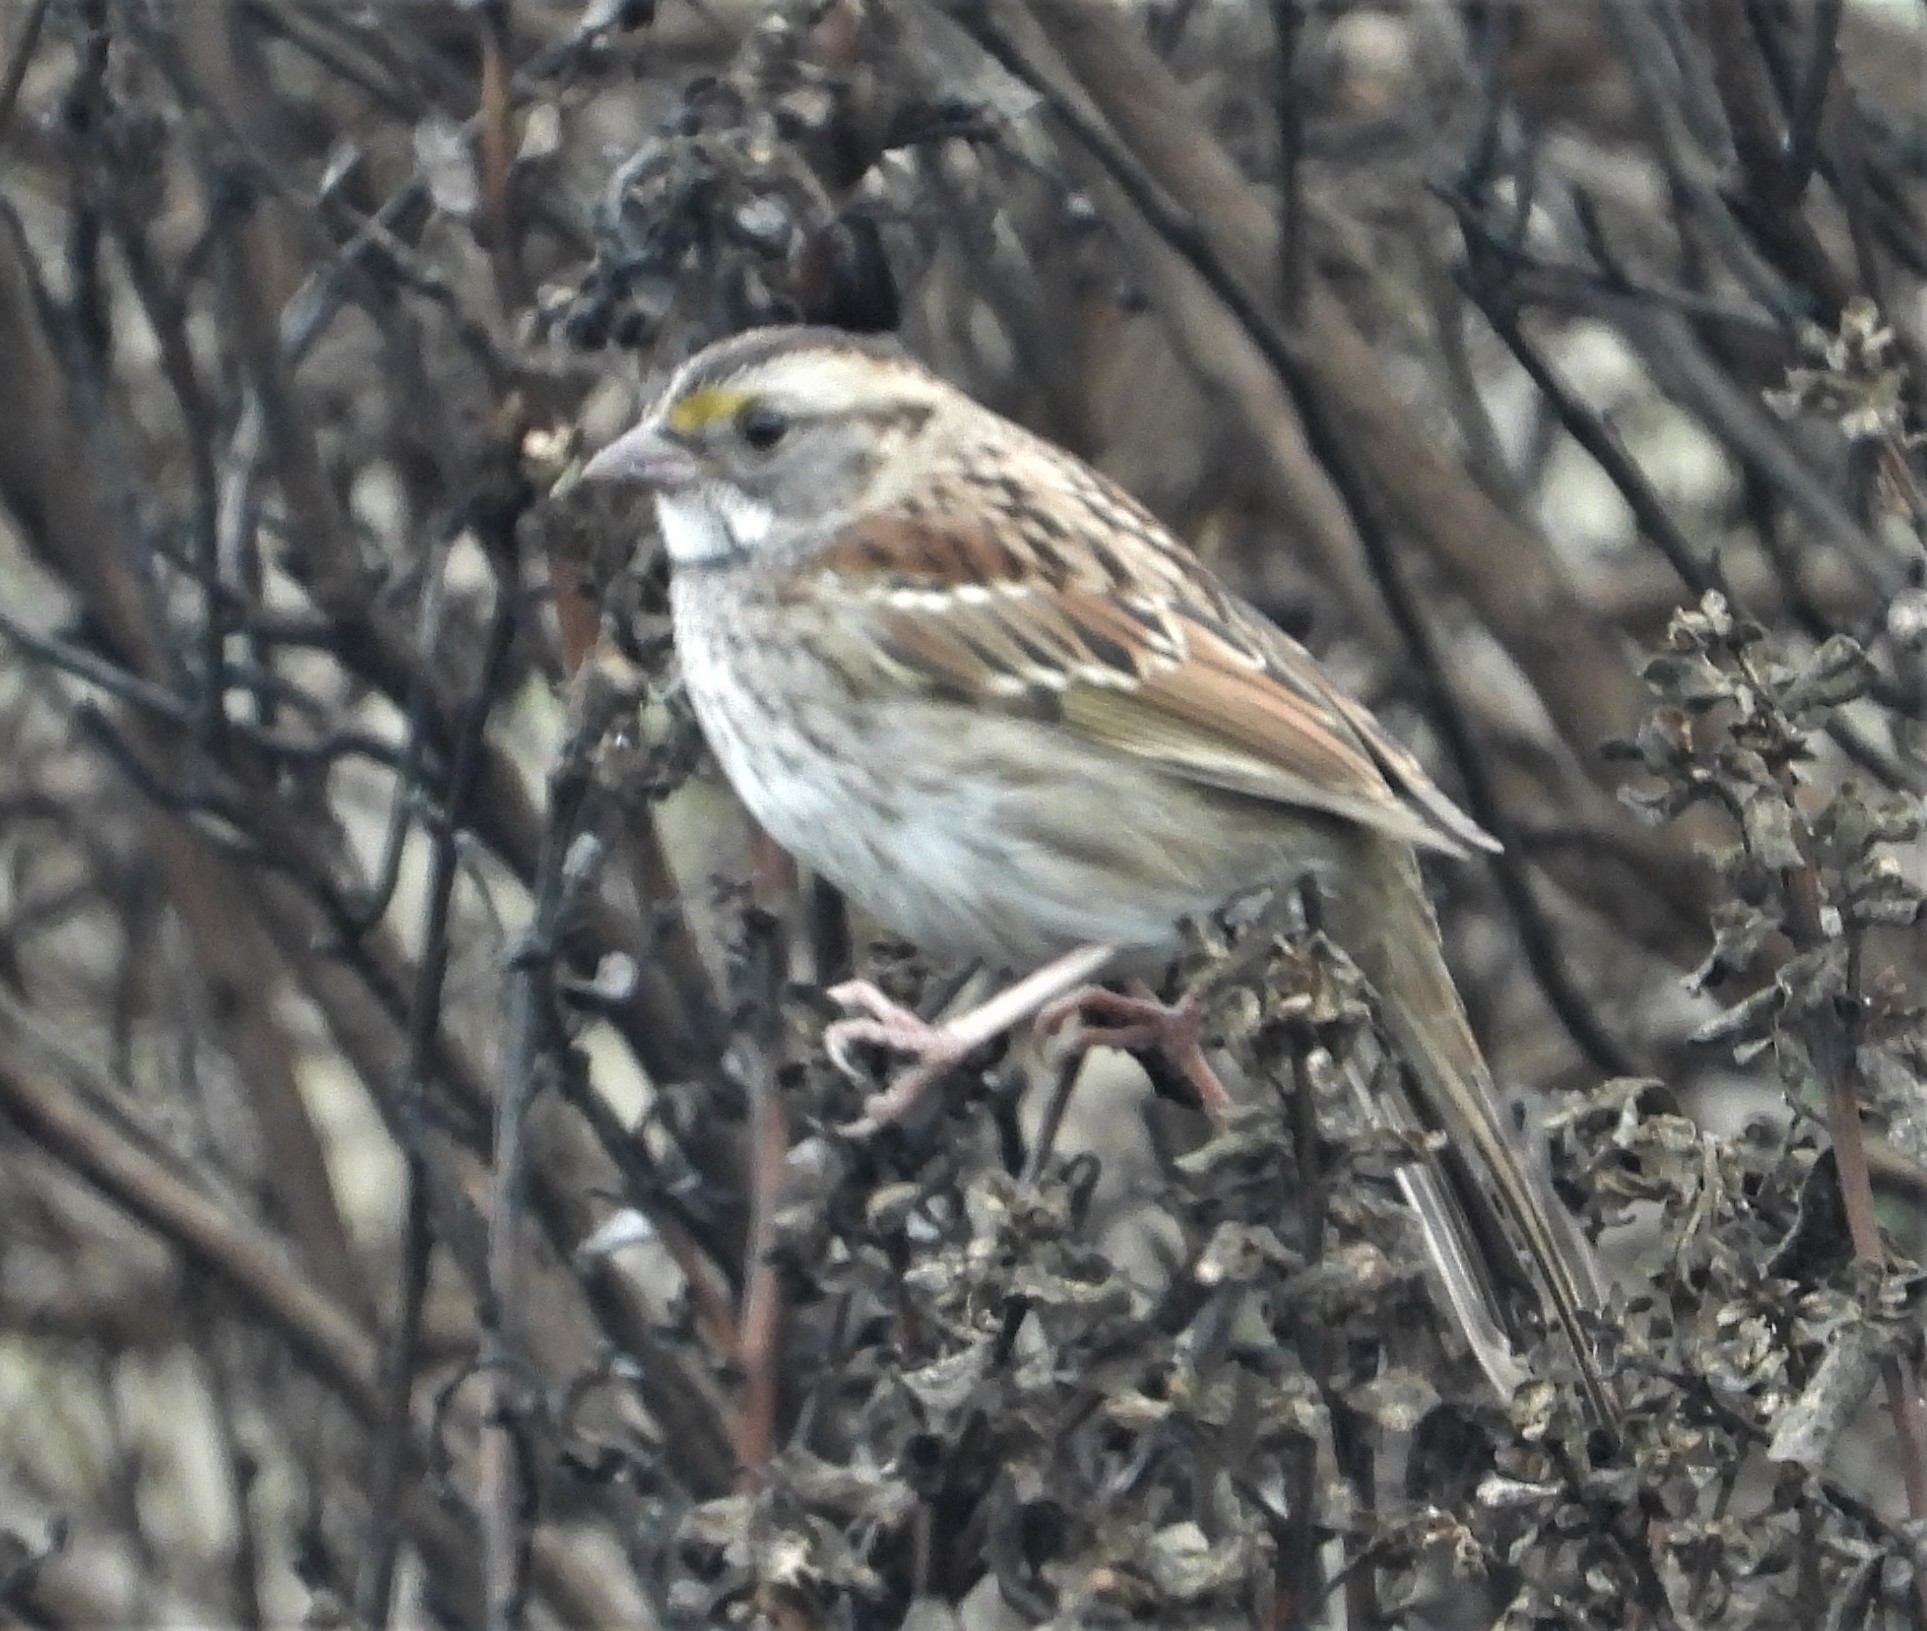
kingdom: Animalia
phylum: Chordata
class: Aves
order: Passeriformes
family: Passerellidae
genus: Zonotrichia
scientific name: Zonotrichia albicollis
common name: White-throated sparrow
